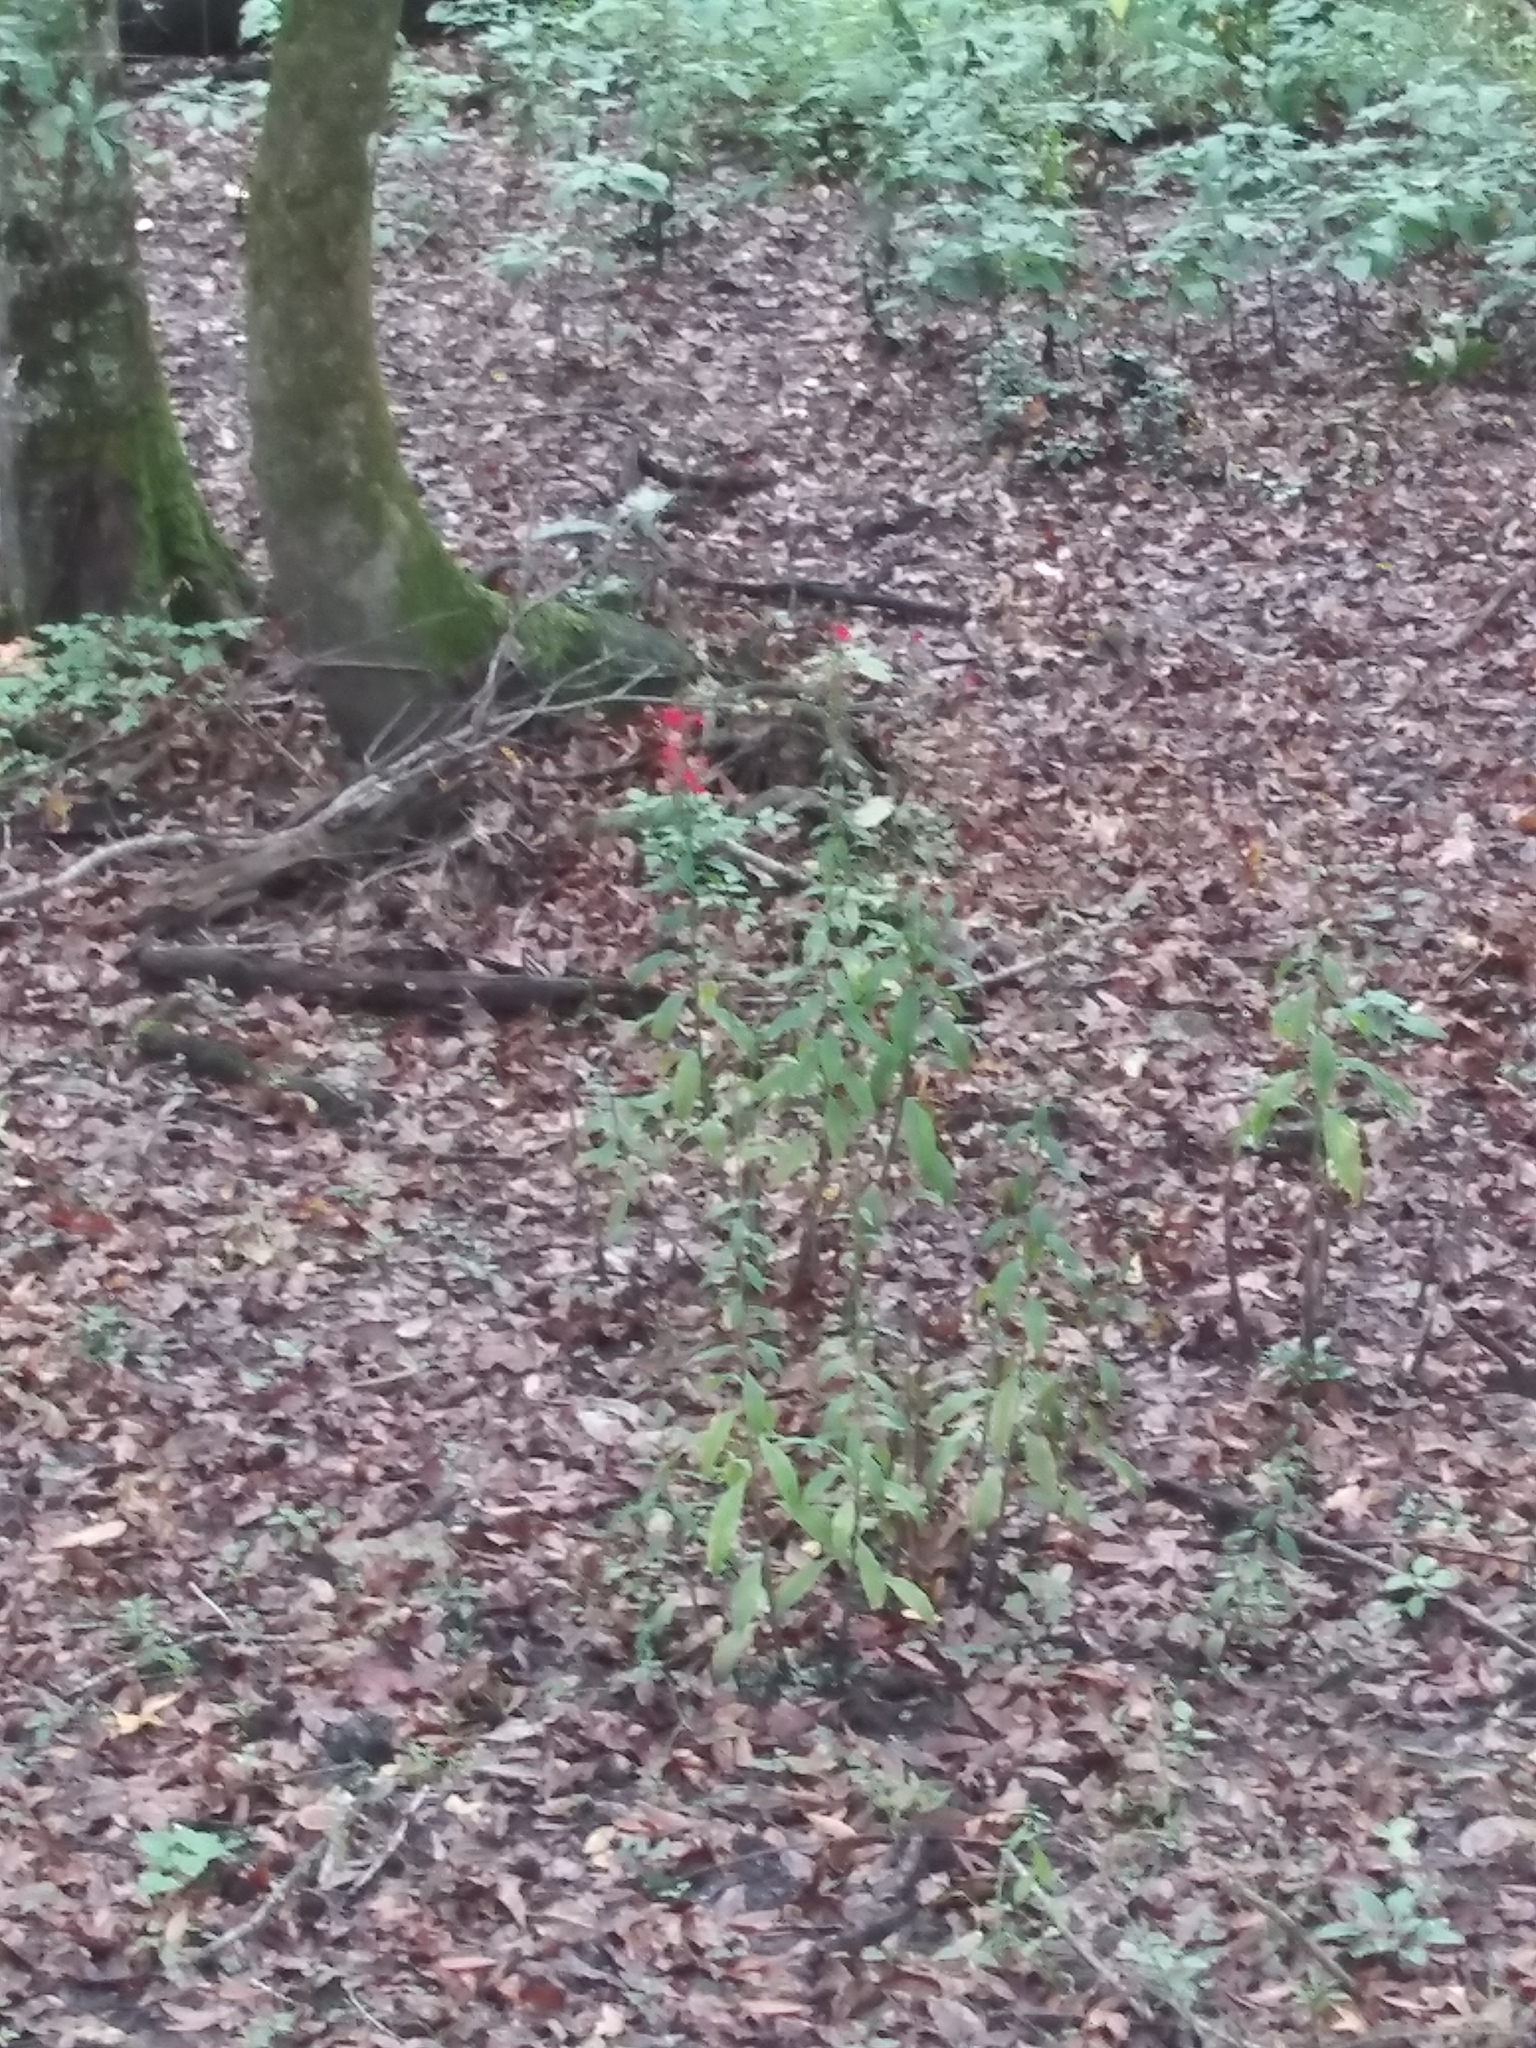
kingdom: Plantae
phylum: Tracheophyta
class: Magnoliopsida
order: Asterales
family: Campanulaceae
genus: Lobelia
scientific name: Lobelia cardinalis
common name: Cardinal flower
